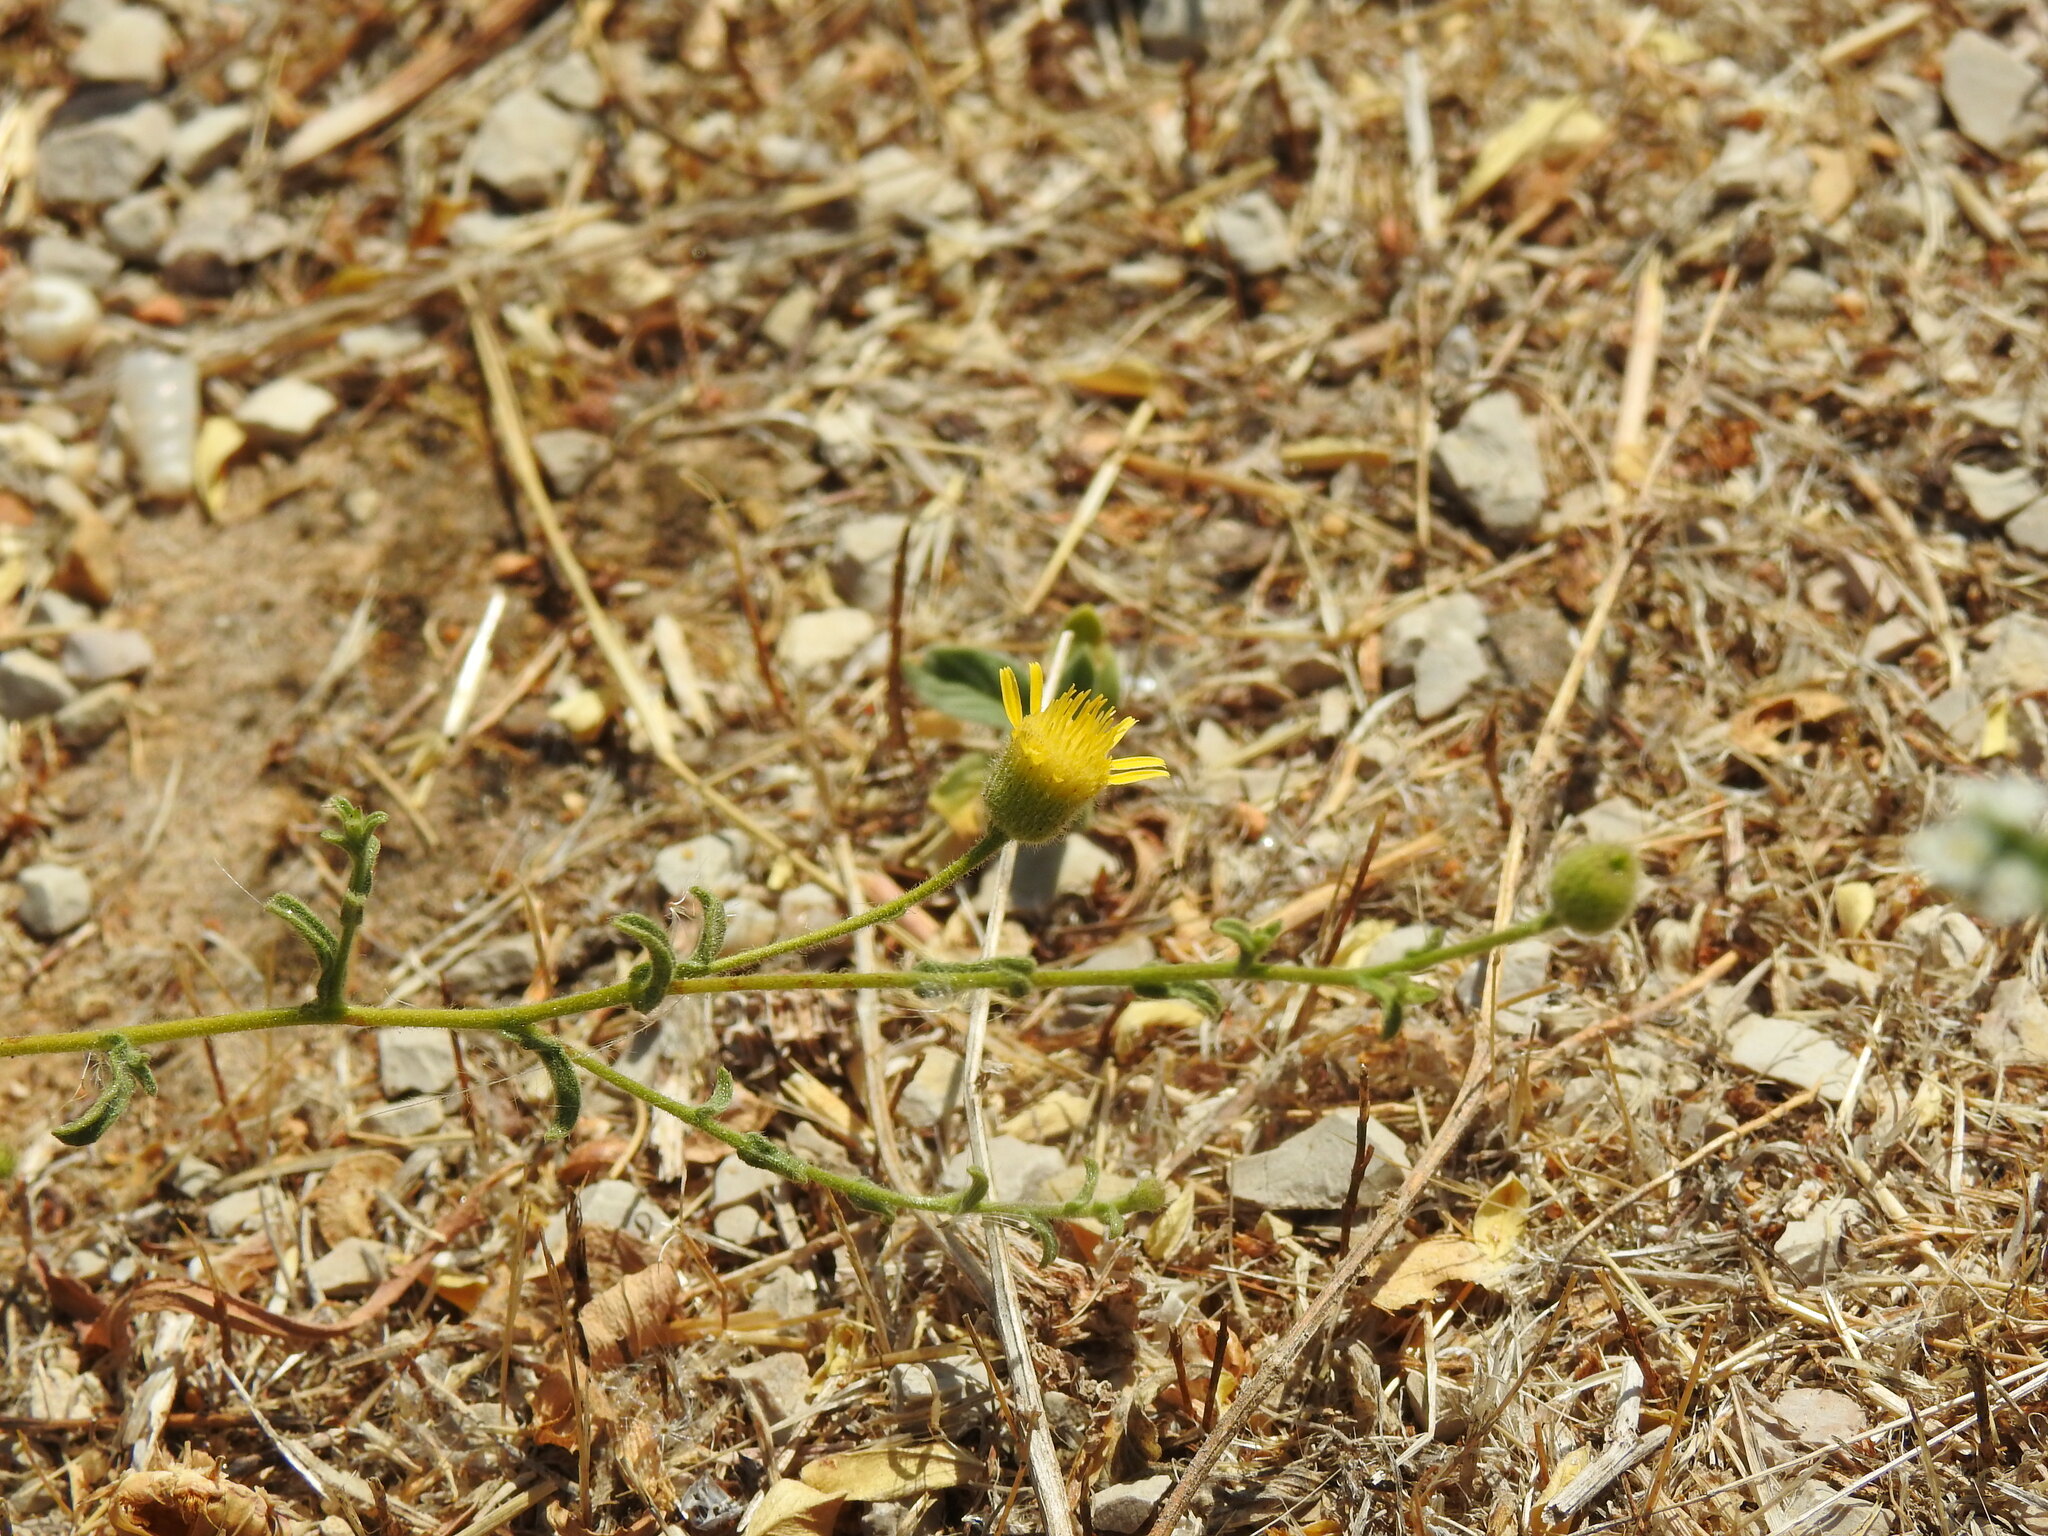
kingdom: Plantae
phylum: Tracheophyta
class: Magnoliopsida
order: Asterales
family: Asteraceae
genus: Pulicaria
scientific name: Pulicaria paludosa
